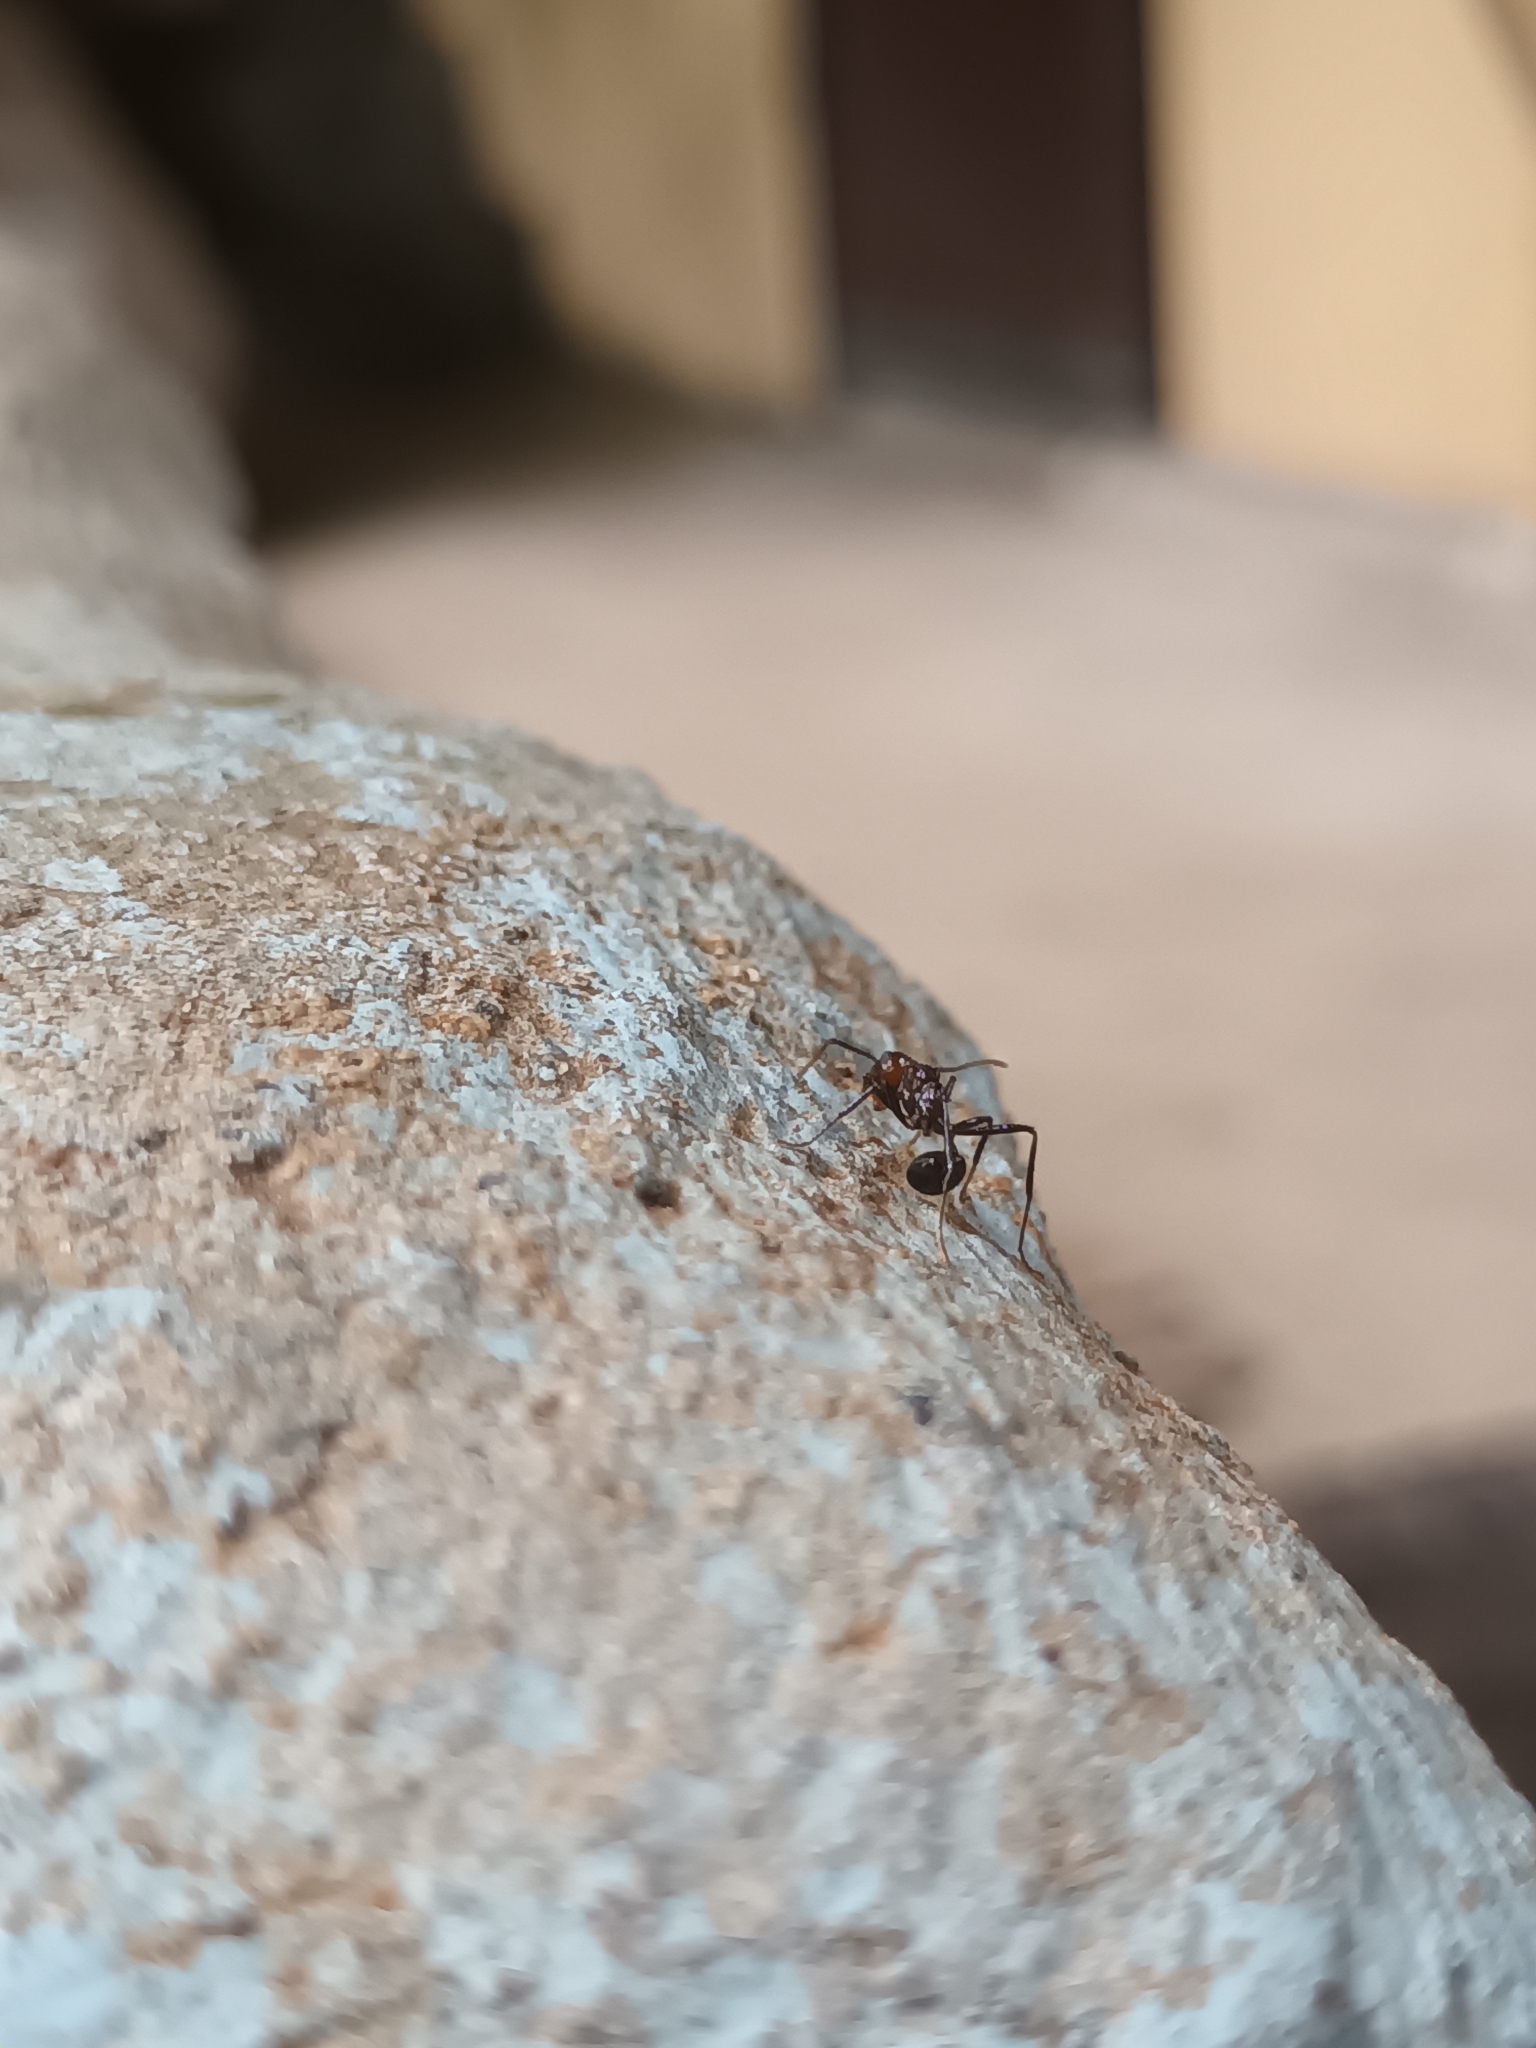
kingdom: Animalia
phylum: Arthropoda
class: Insecta
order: Hymenoptera
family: Formicidae
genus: Myrmicaria
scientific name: Myrmicaria brunnea
